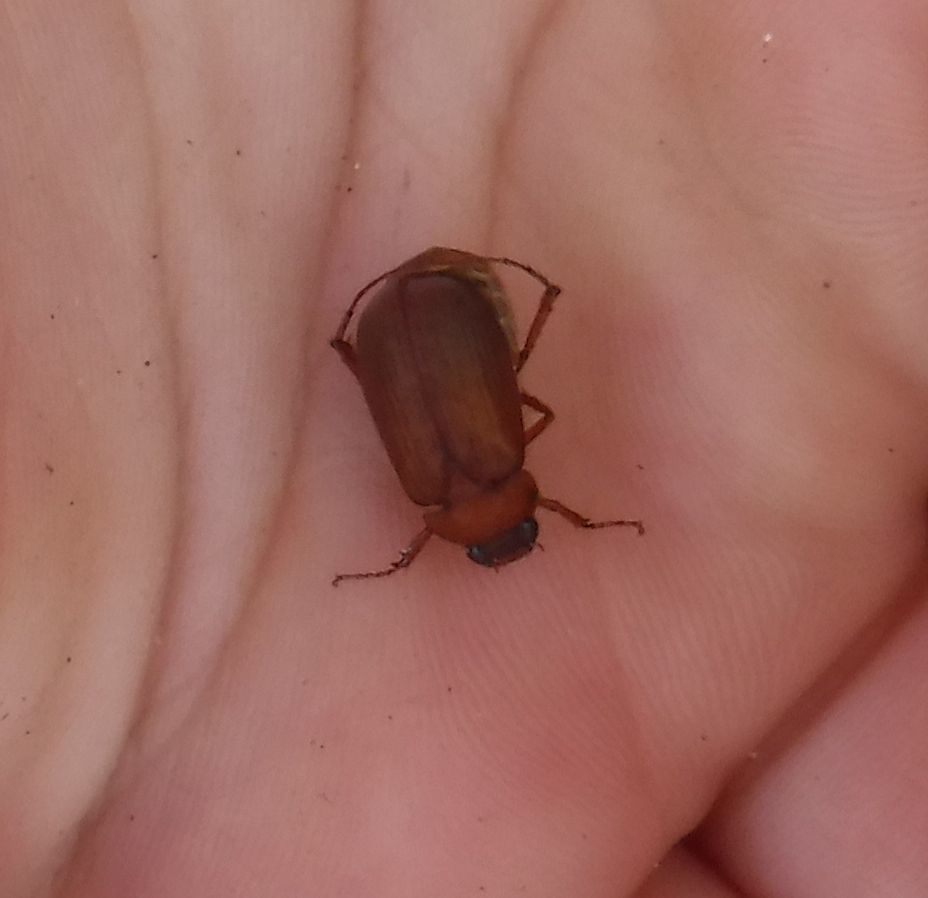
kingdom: Animalia
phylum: Arthropoda
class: Insecta
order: Coleoptera
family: Scarabaeidae
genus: Serica
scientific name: Serica brunnea
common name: Brown chafer
